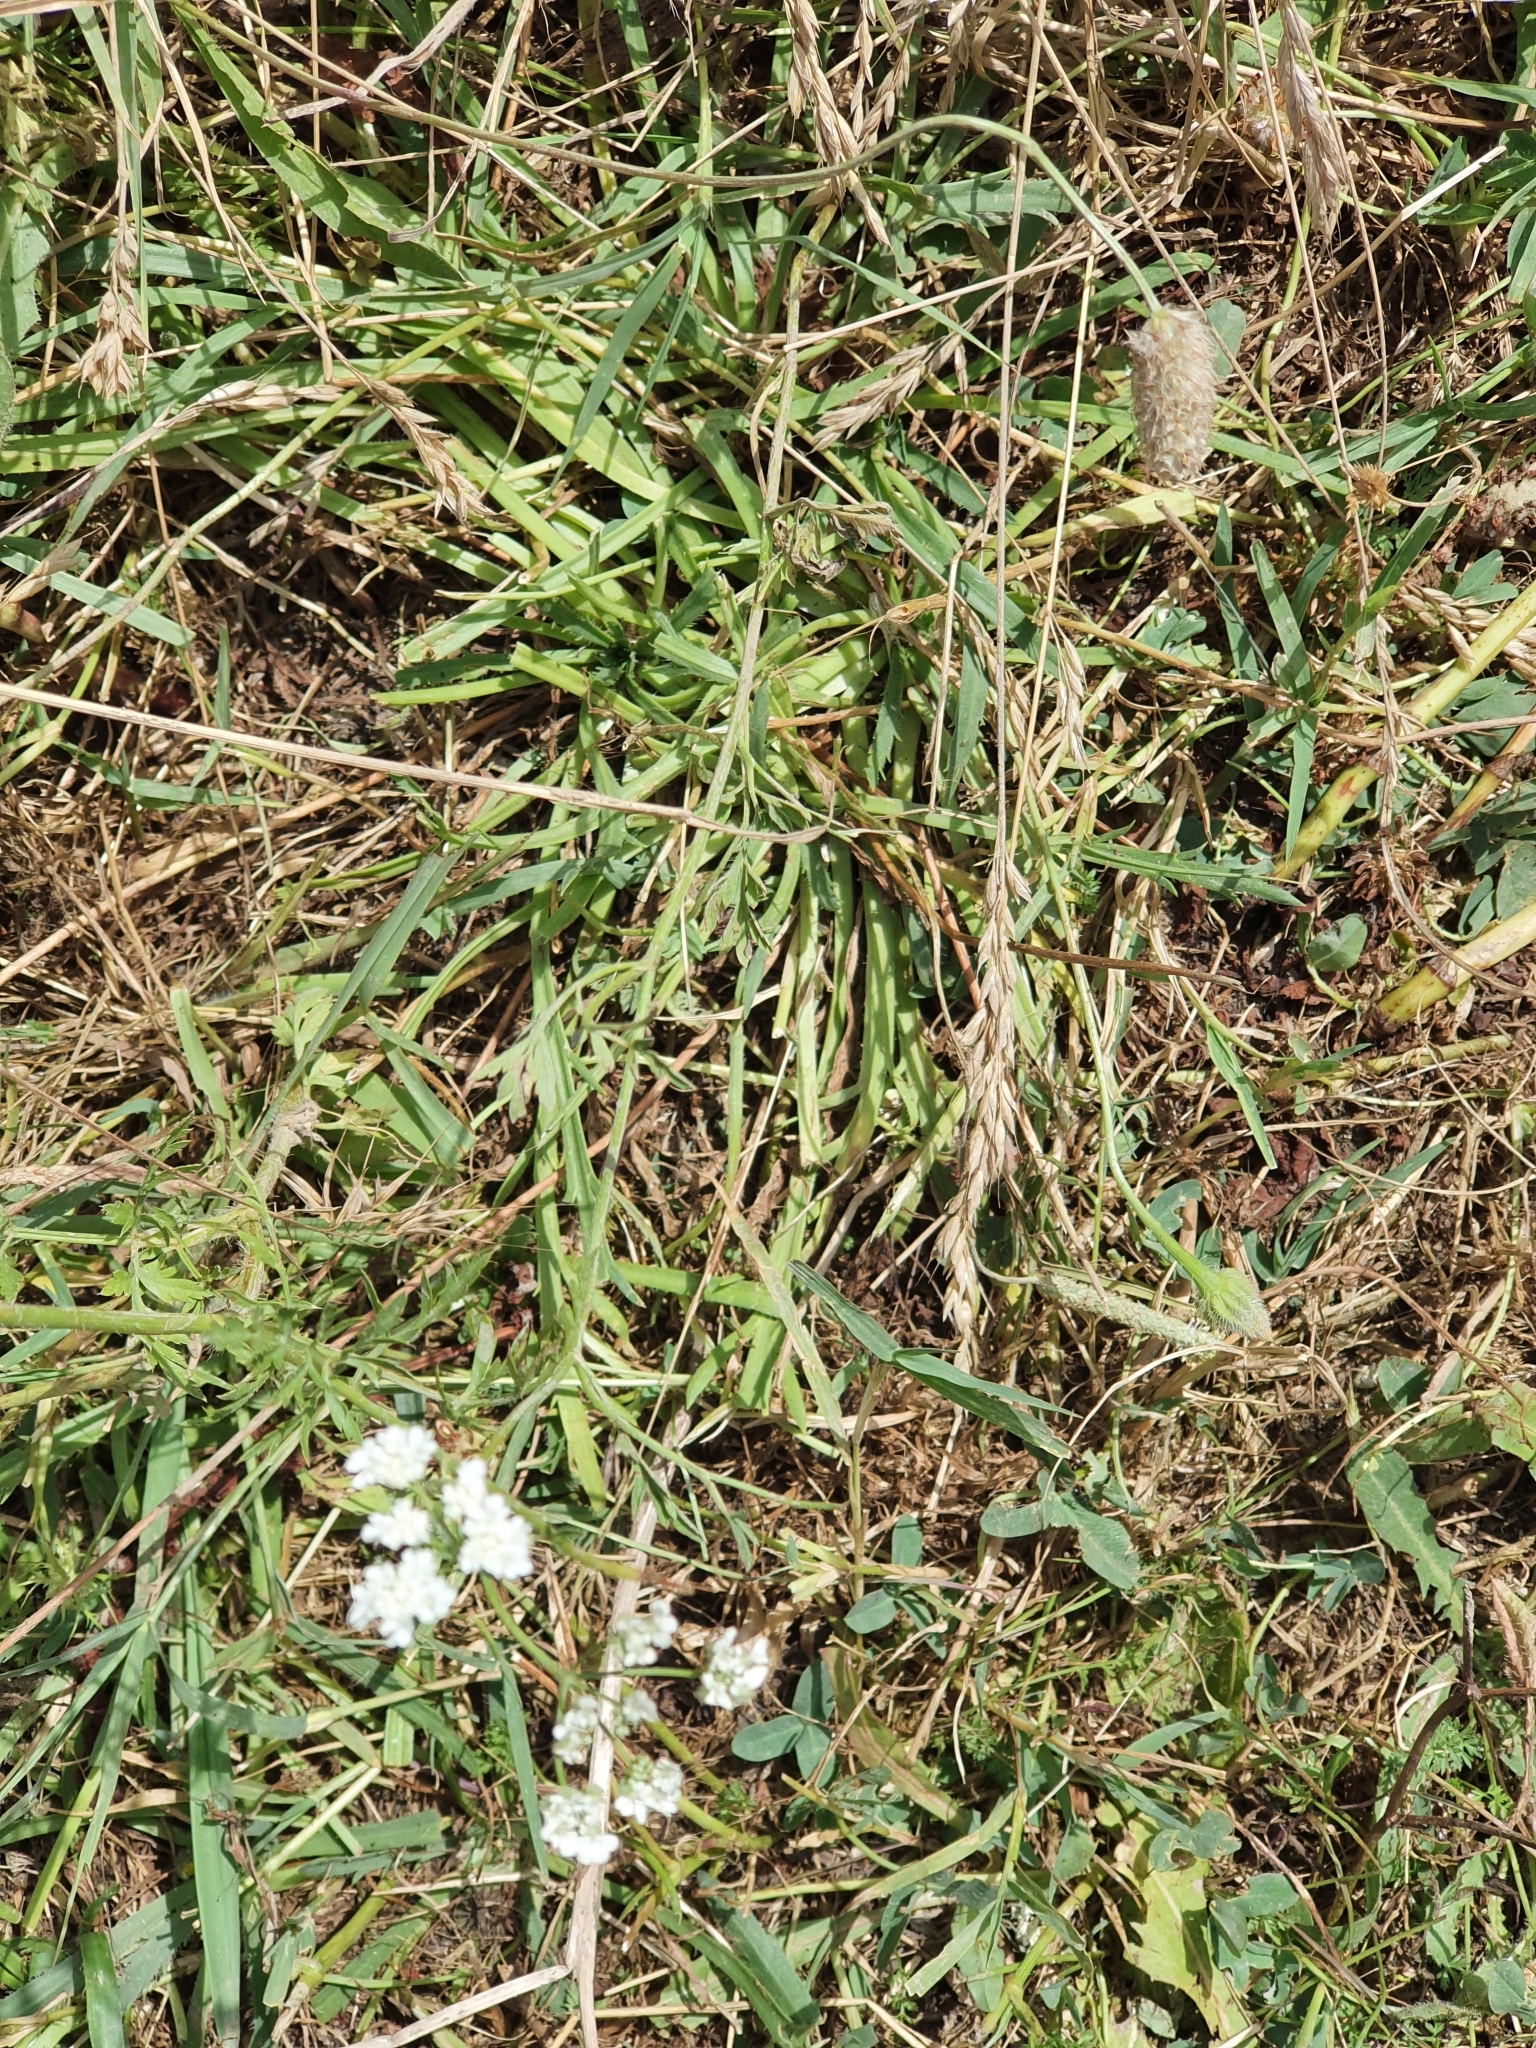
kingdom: Plantae
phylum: Tracheophyta
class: Magnoliopsida
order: Apiales
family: Apiaceae
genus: Torilis
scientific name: Torilis arvensis
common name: Spreading hedge-parsley
